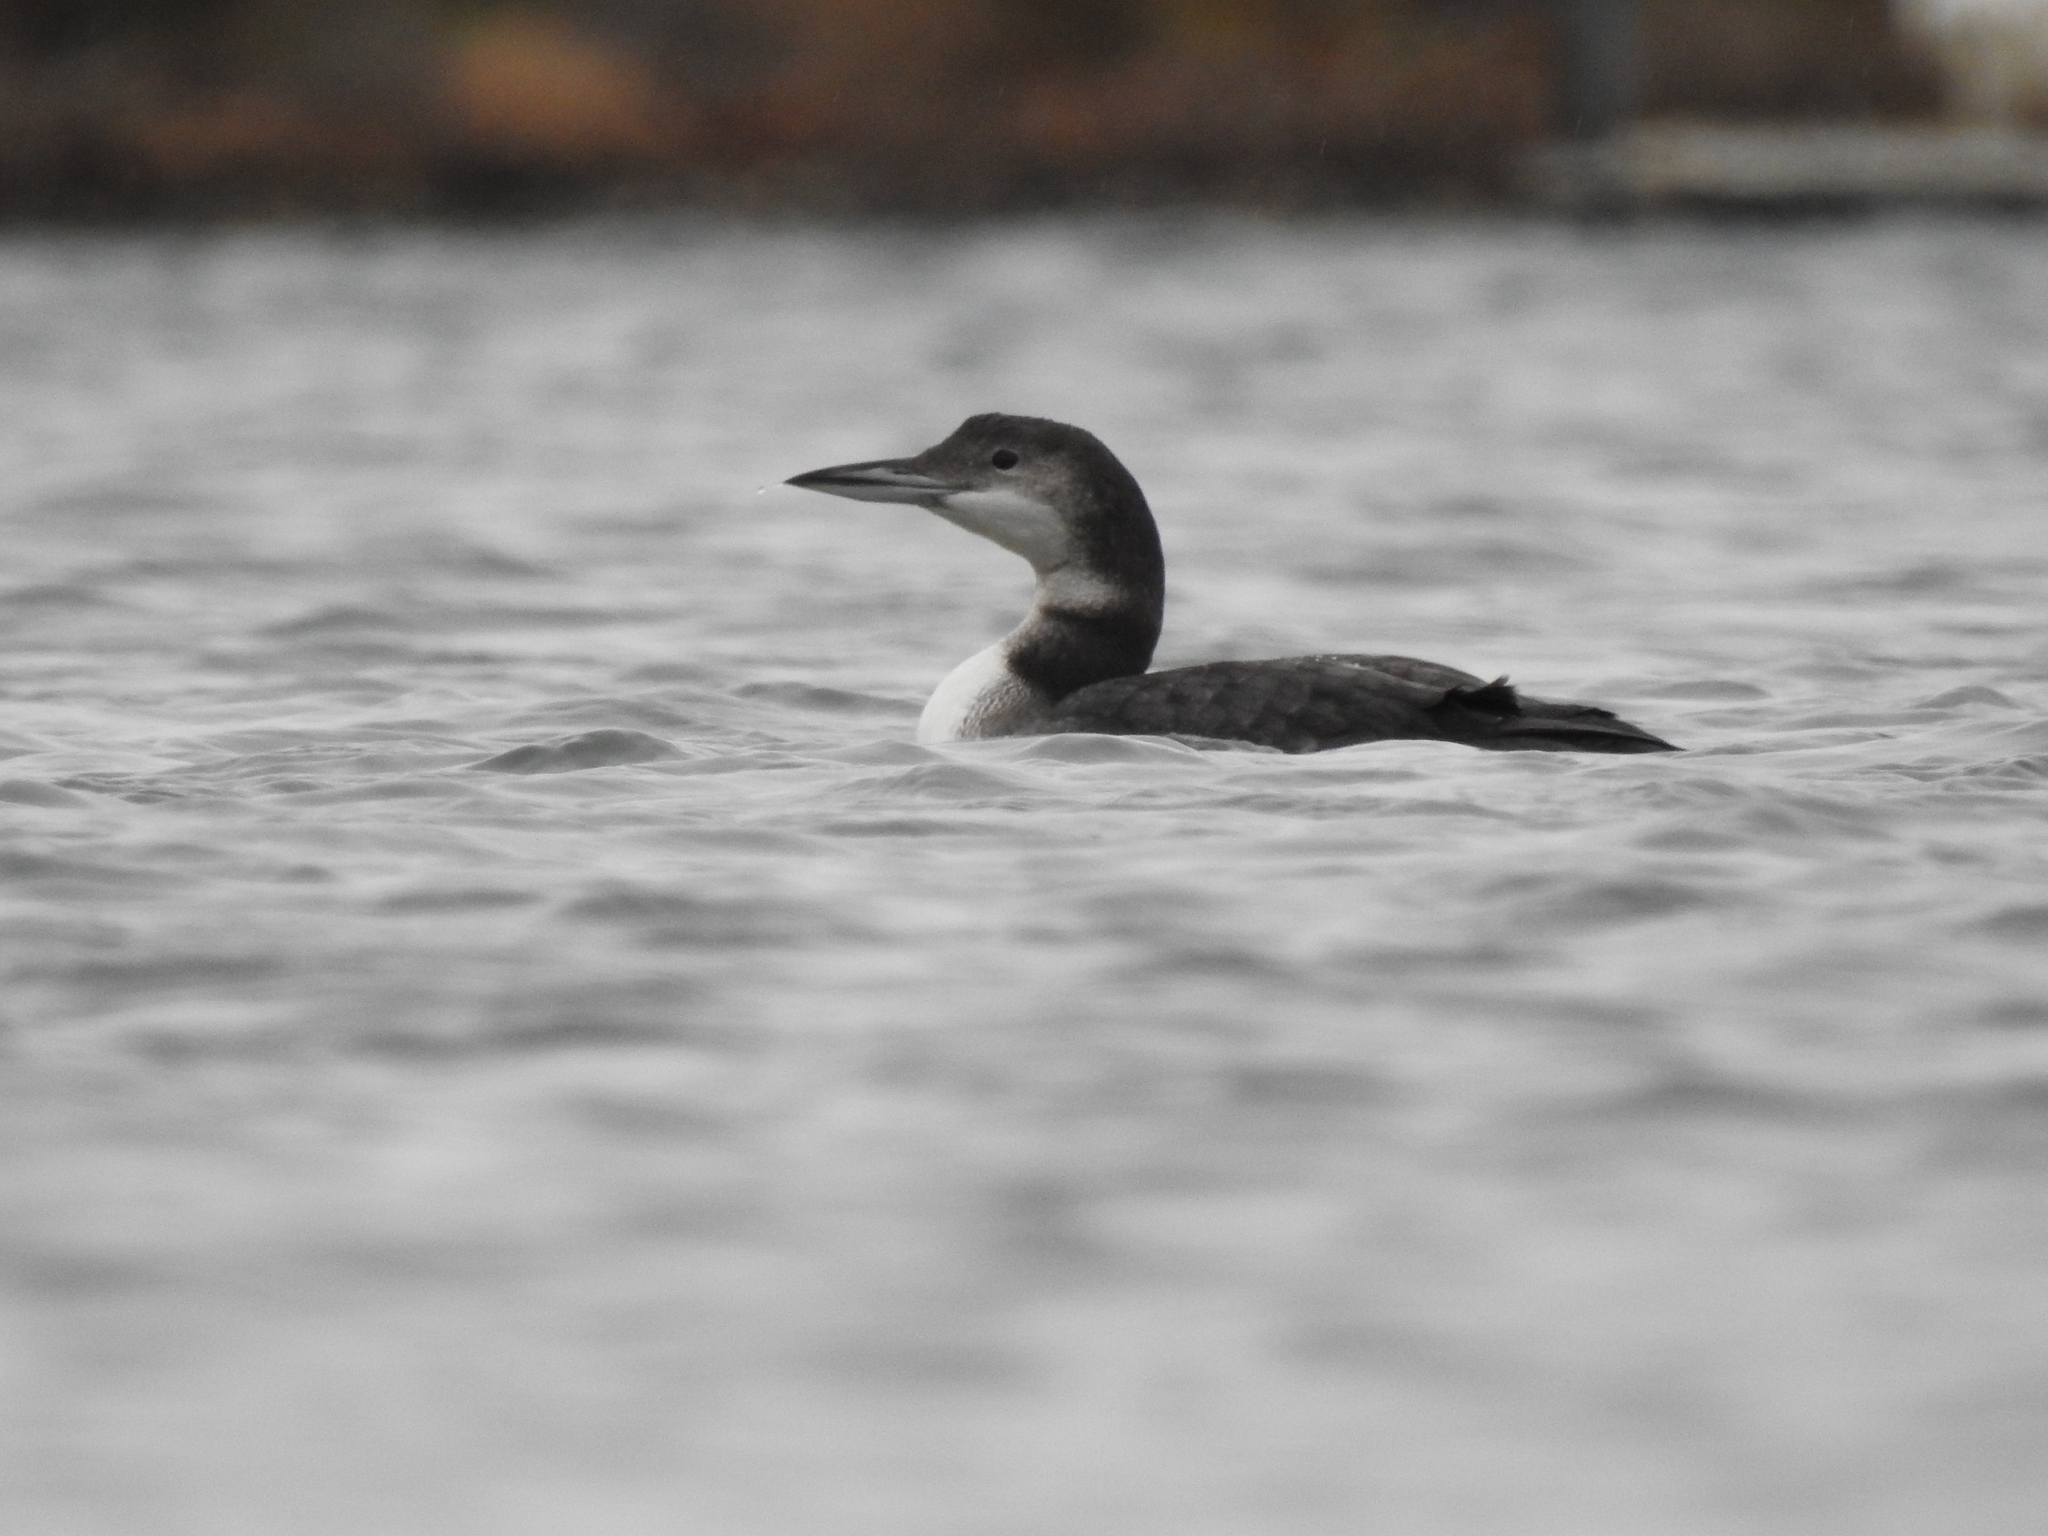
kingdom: Animalia
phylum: Chordata
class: Aves
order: Gaviiformes
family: Gaviidae
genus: Gavia
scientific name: Gavia immer
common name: Common loon
